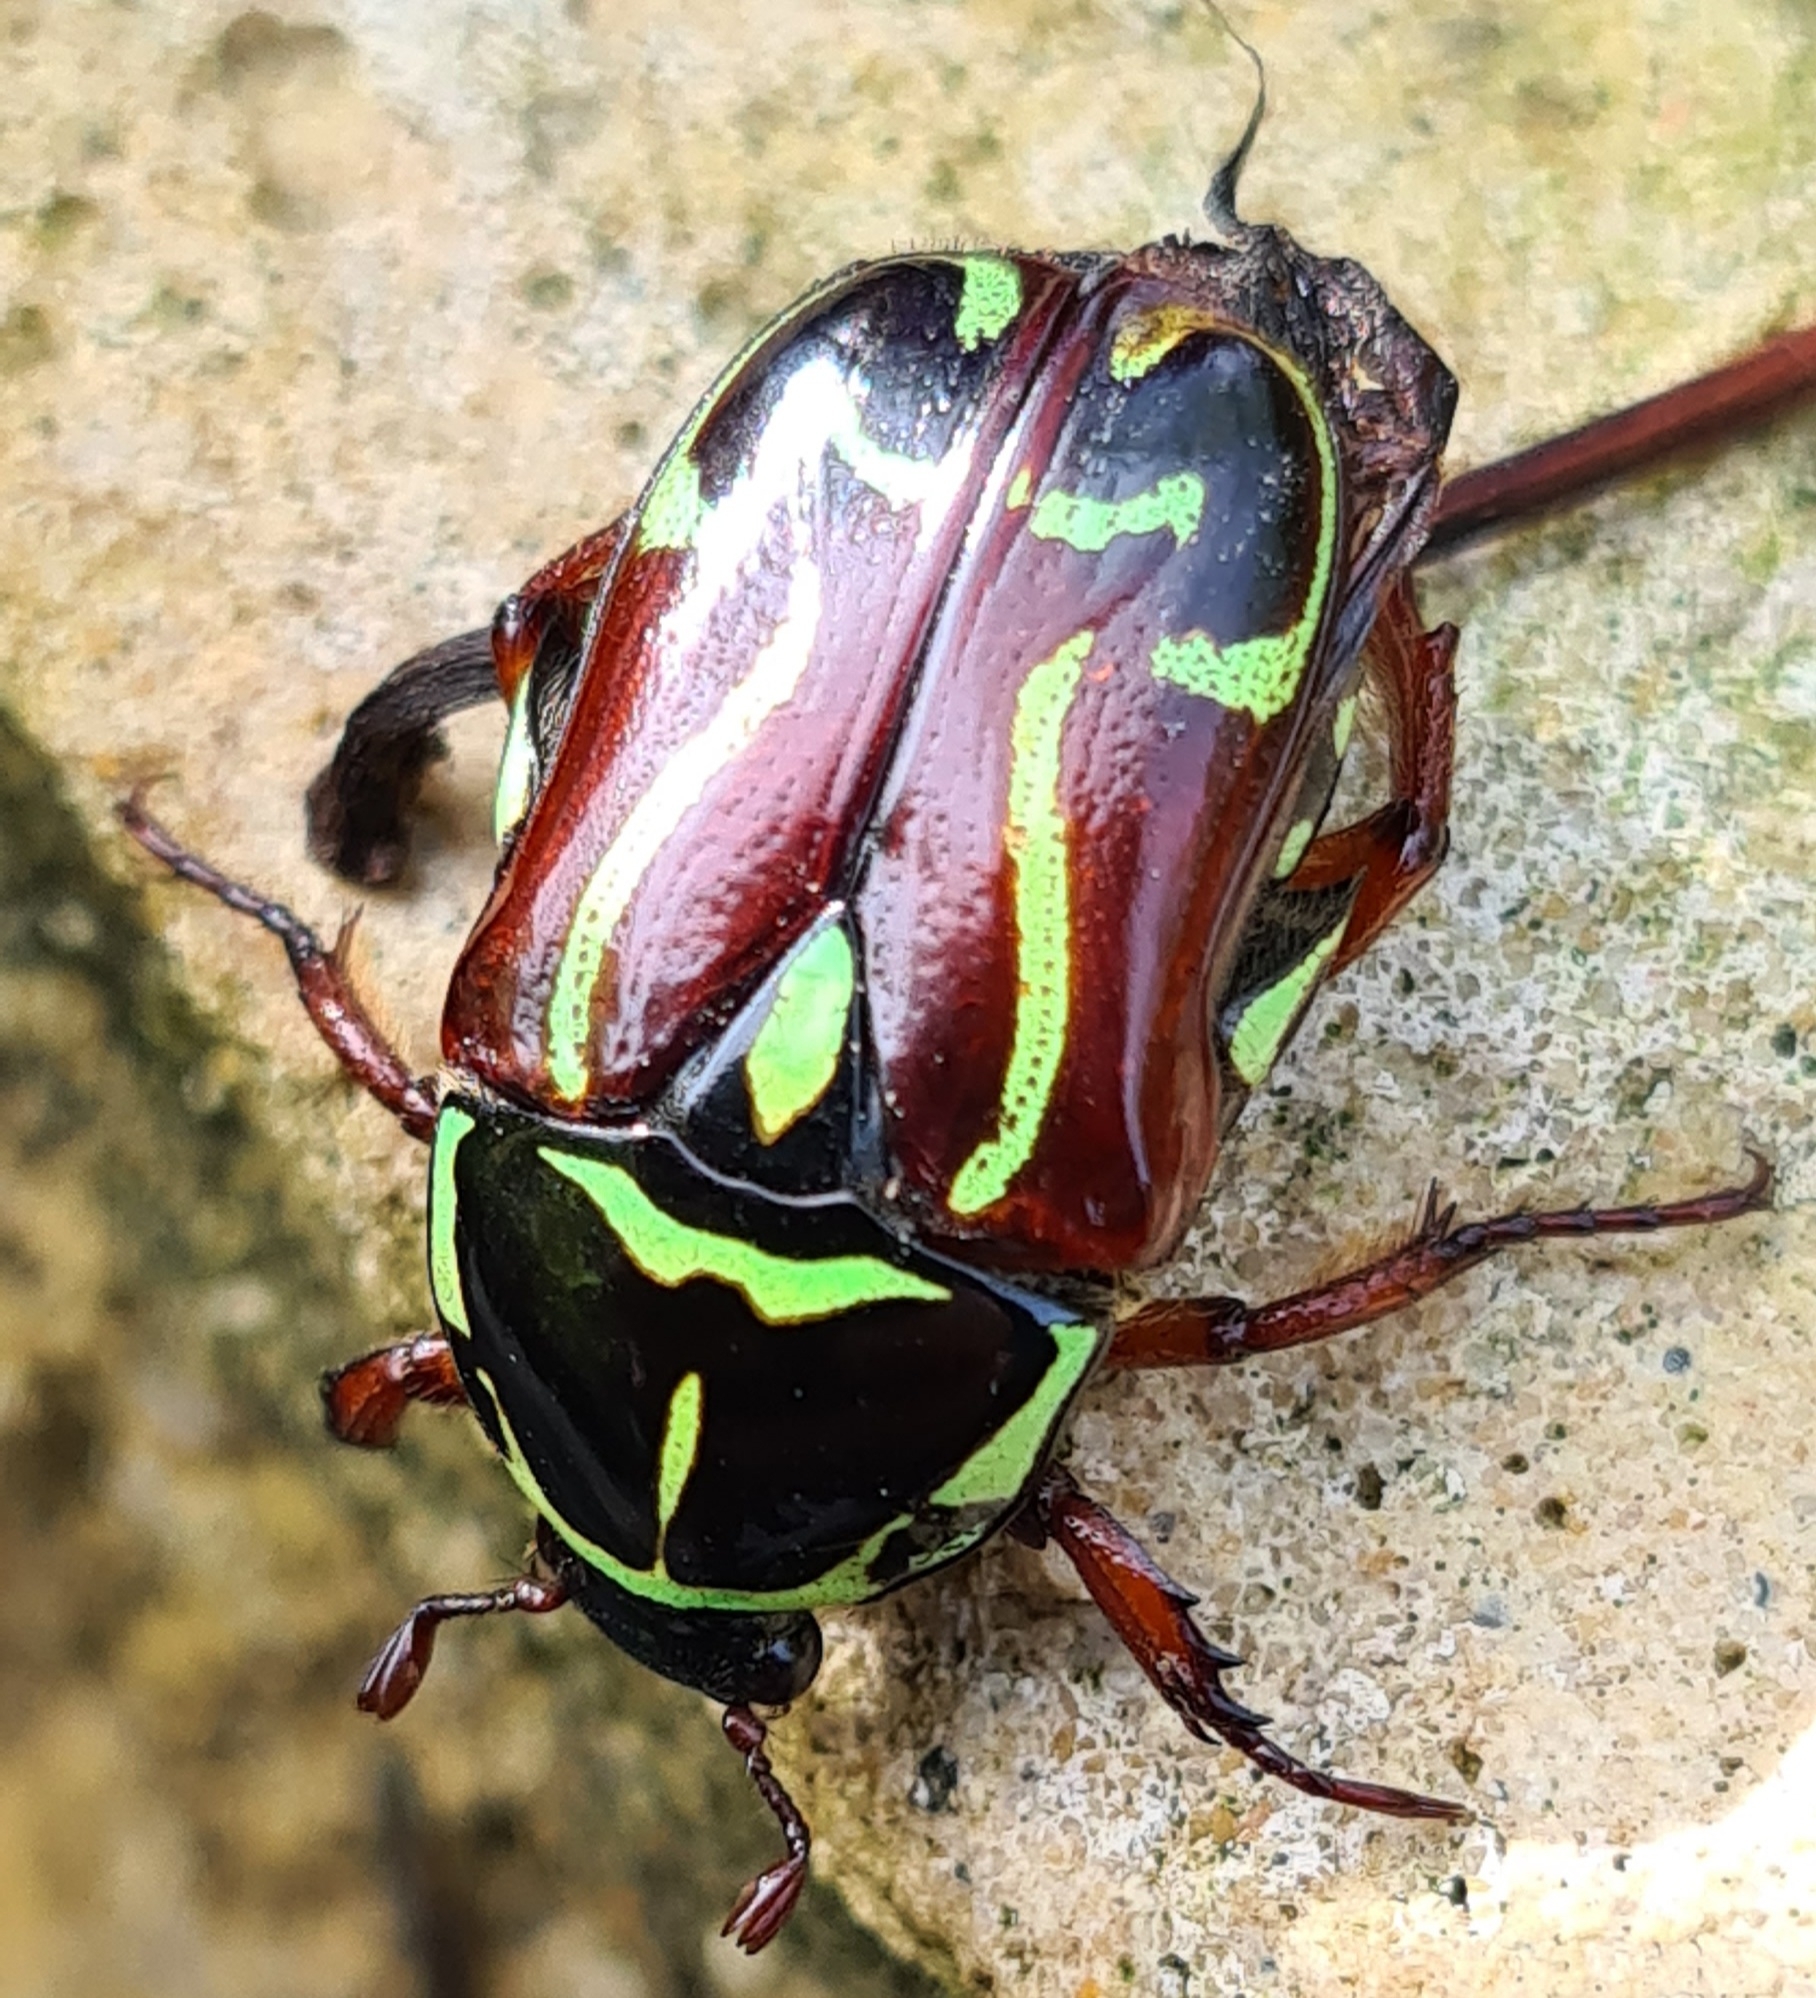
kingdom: Animalia
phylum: Arthropoda
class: Insecta
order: Coleoptera
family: Scarabaeidae
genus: Eupoecila
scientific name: Eupoecila australasiae
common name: Fiddler beetle
